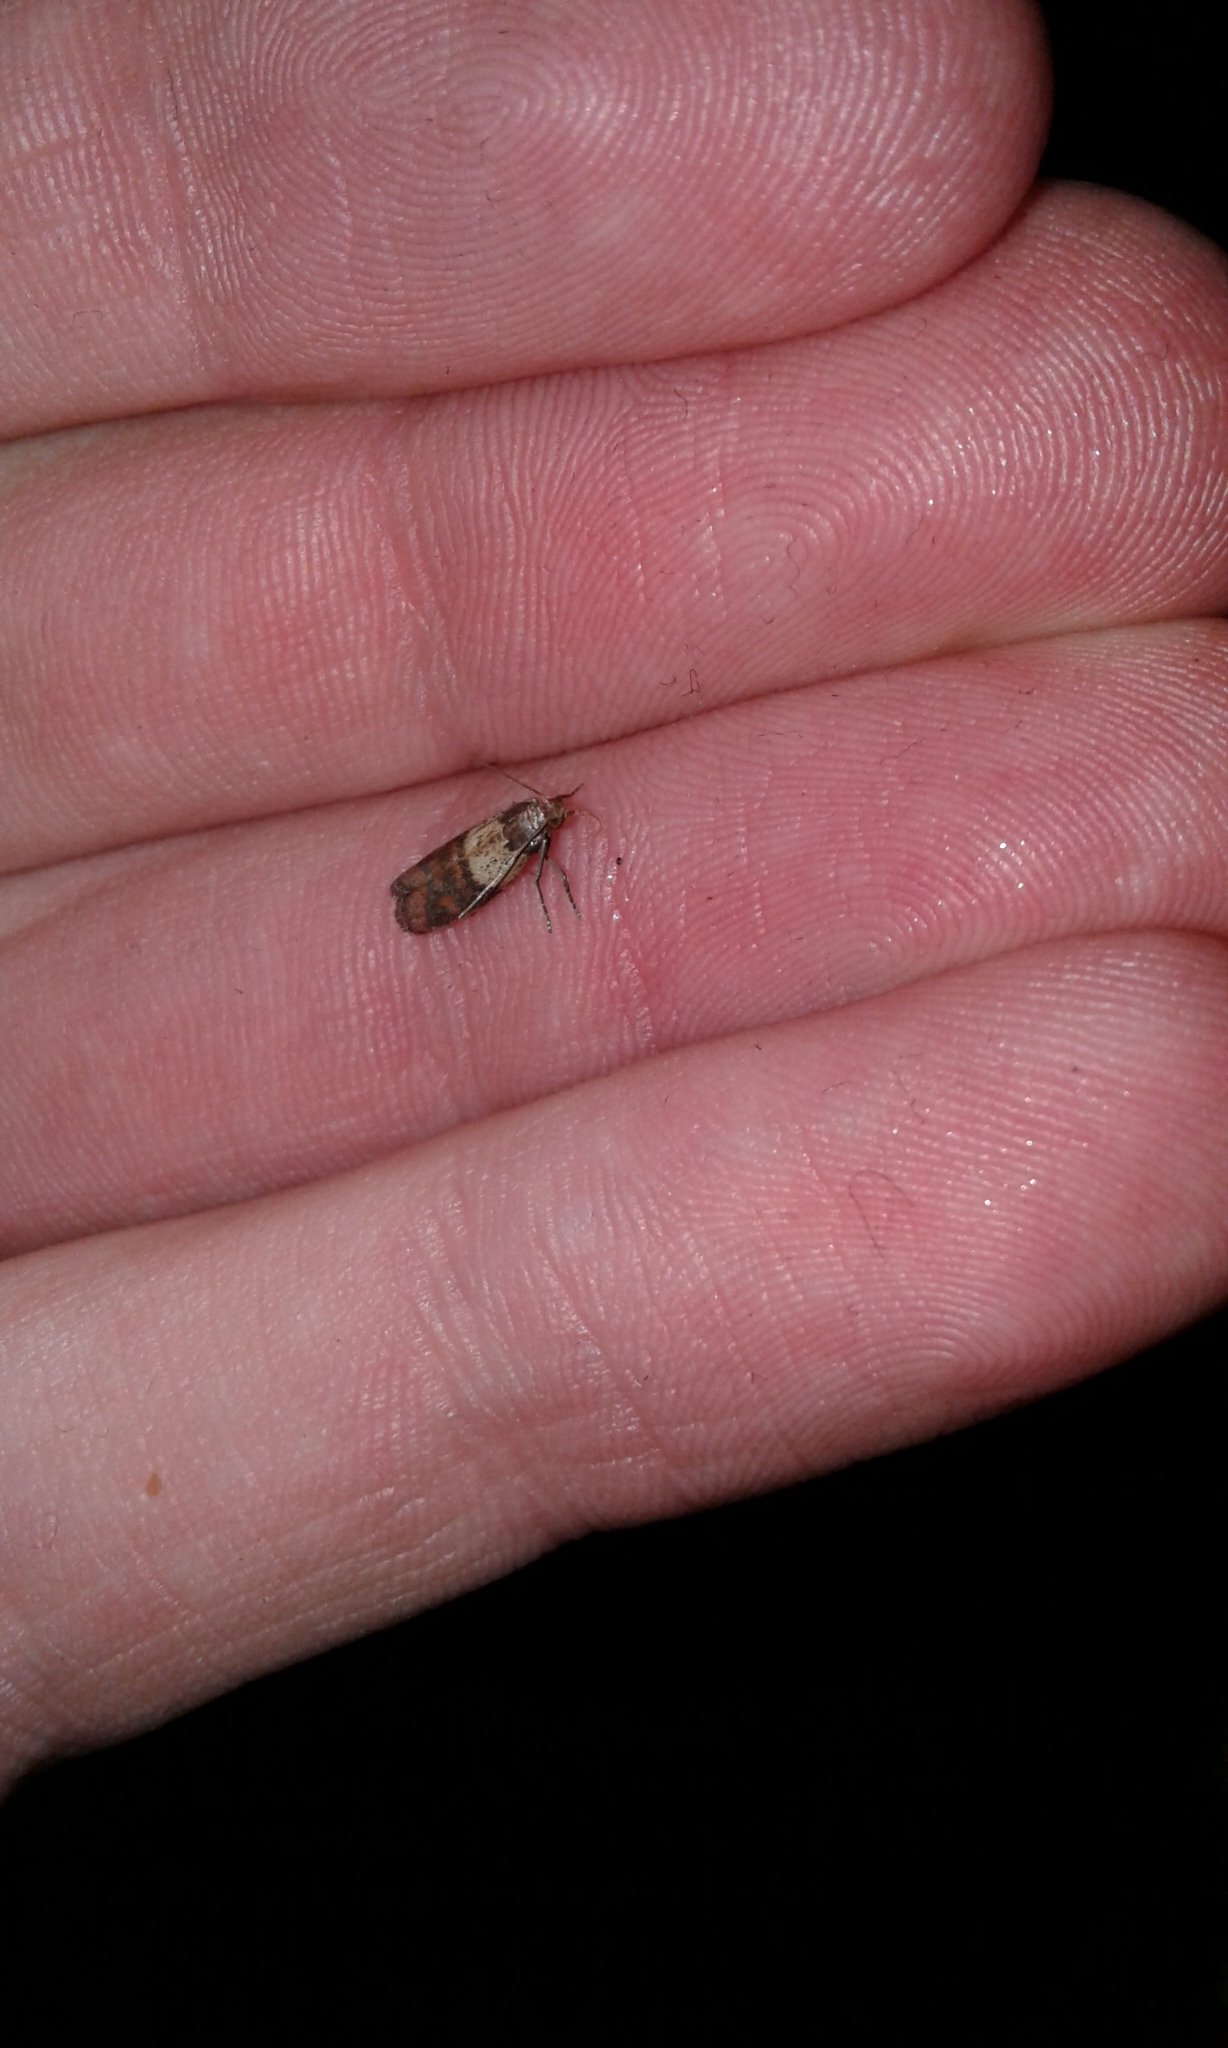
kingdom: Animalia
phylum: Arthropoda
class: Insecta
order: Lepidoptera
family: Pyralidae
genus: Plodia
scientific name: Plodia interpunctella
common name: Indian meal moth
